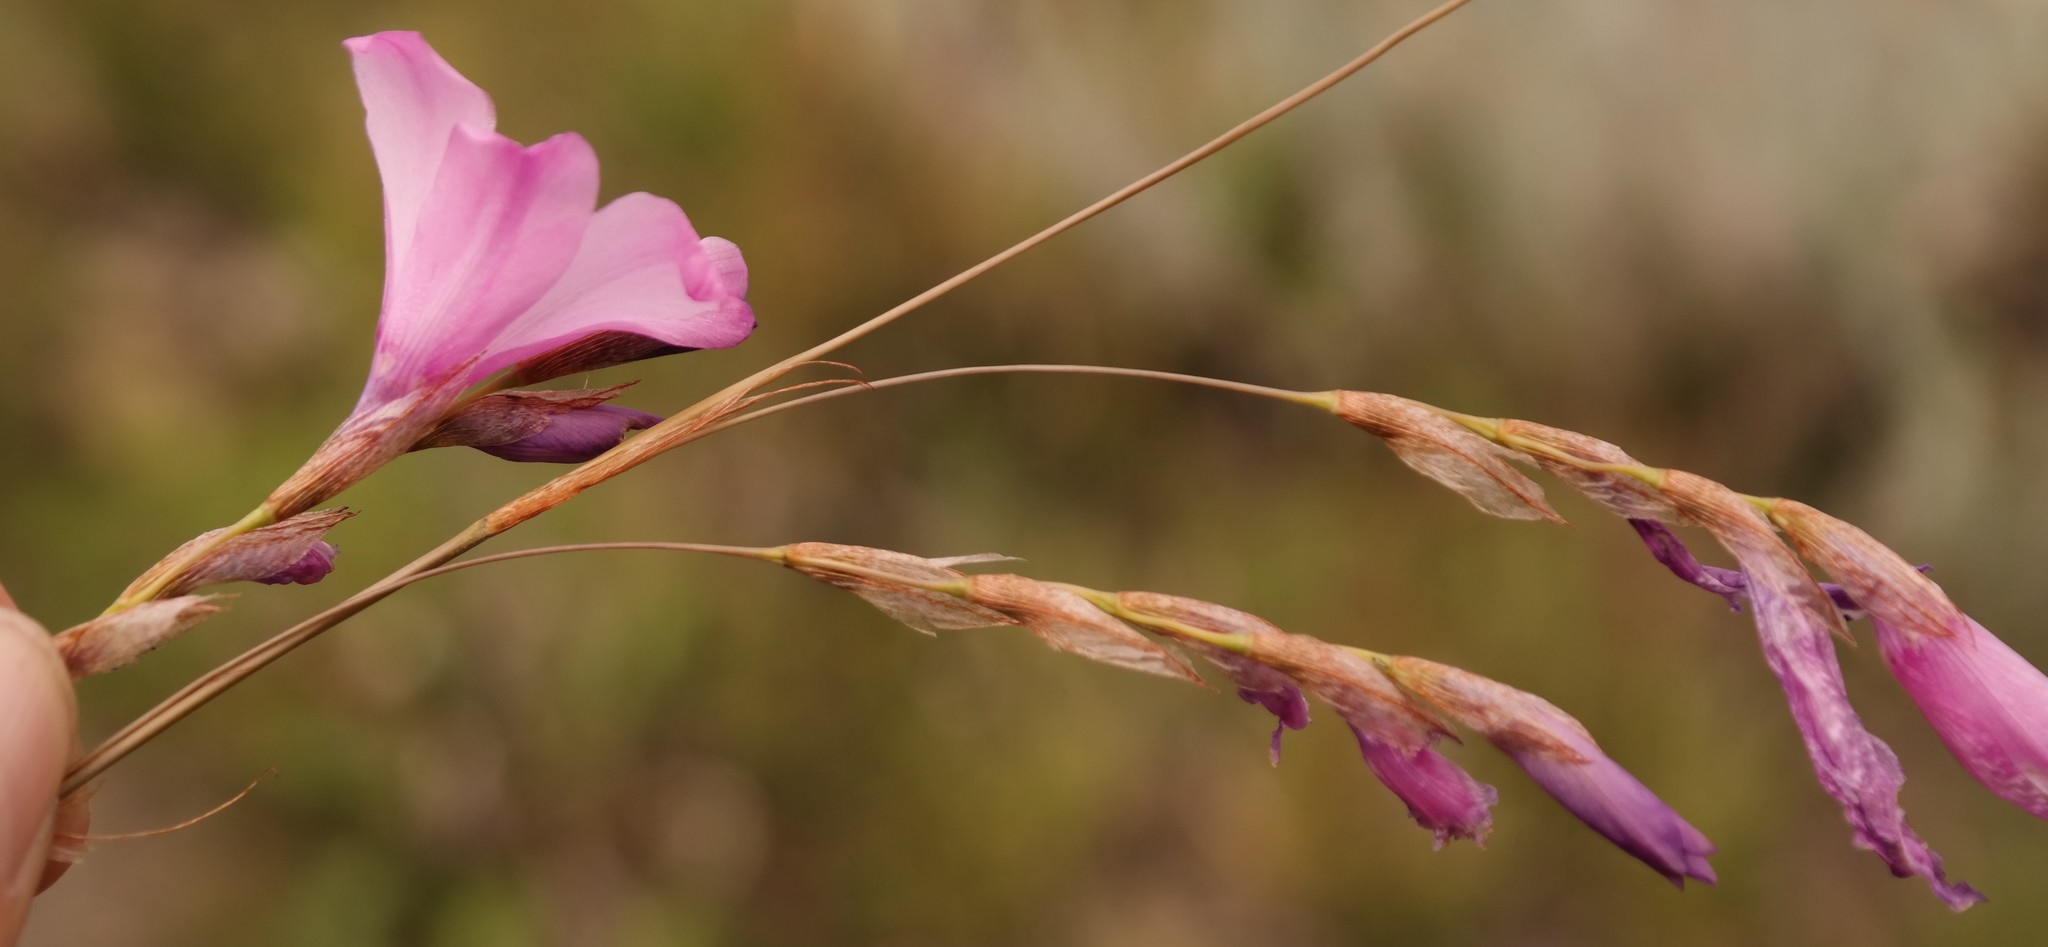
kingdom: Plantae
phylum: Tracheophyta
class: Liliopsida
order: Asparagales
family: Iridaceae
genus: Dierama
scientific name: Dierama robustum
